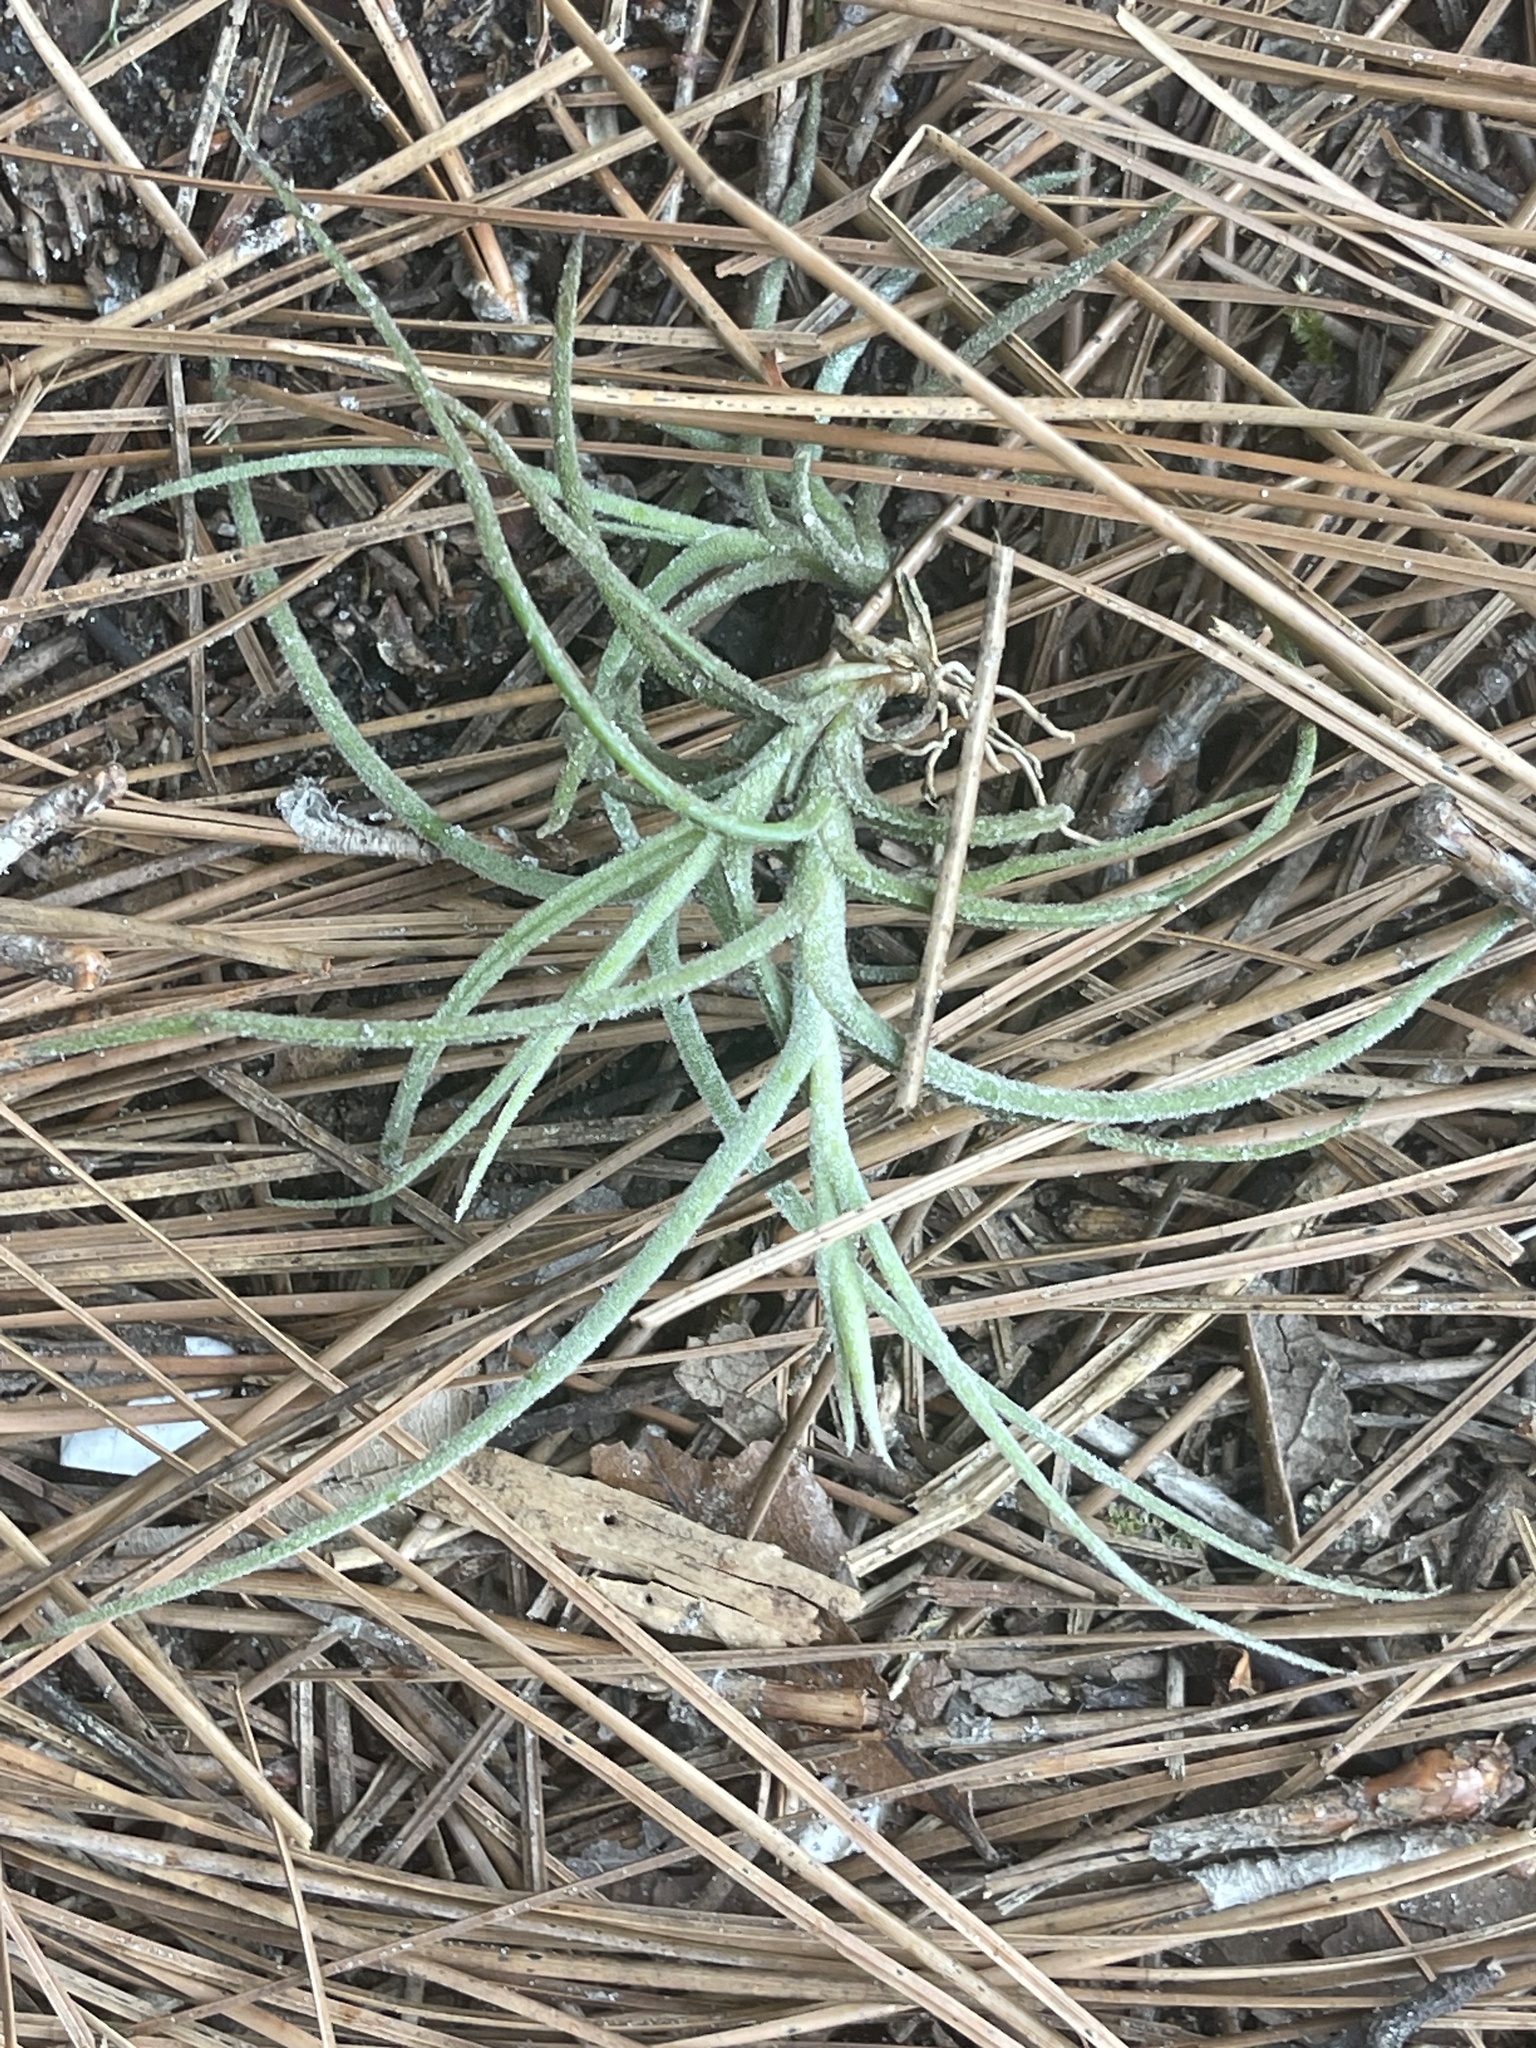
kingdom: Plantae
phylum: Tracheophyta
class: Liliopsida
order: Poales
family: Bromeliaceae
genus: Tillandsia
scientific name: Tillandsia recurvata
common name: Small ballmoss
